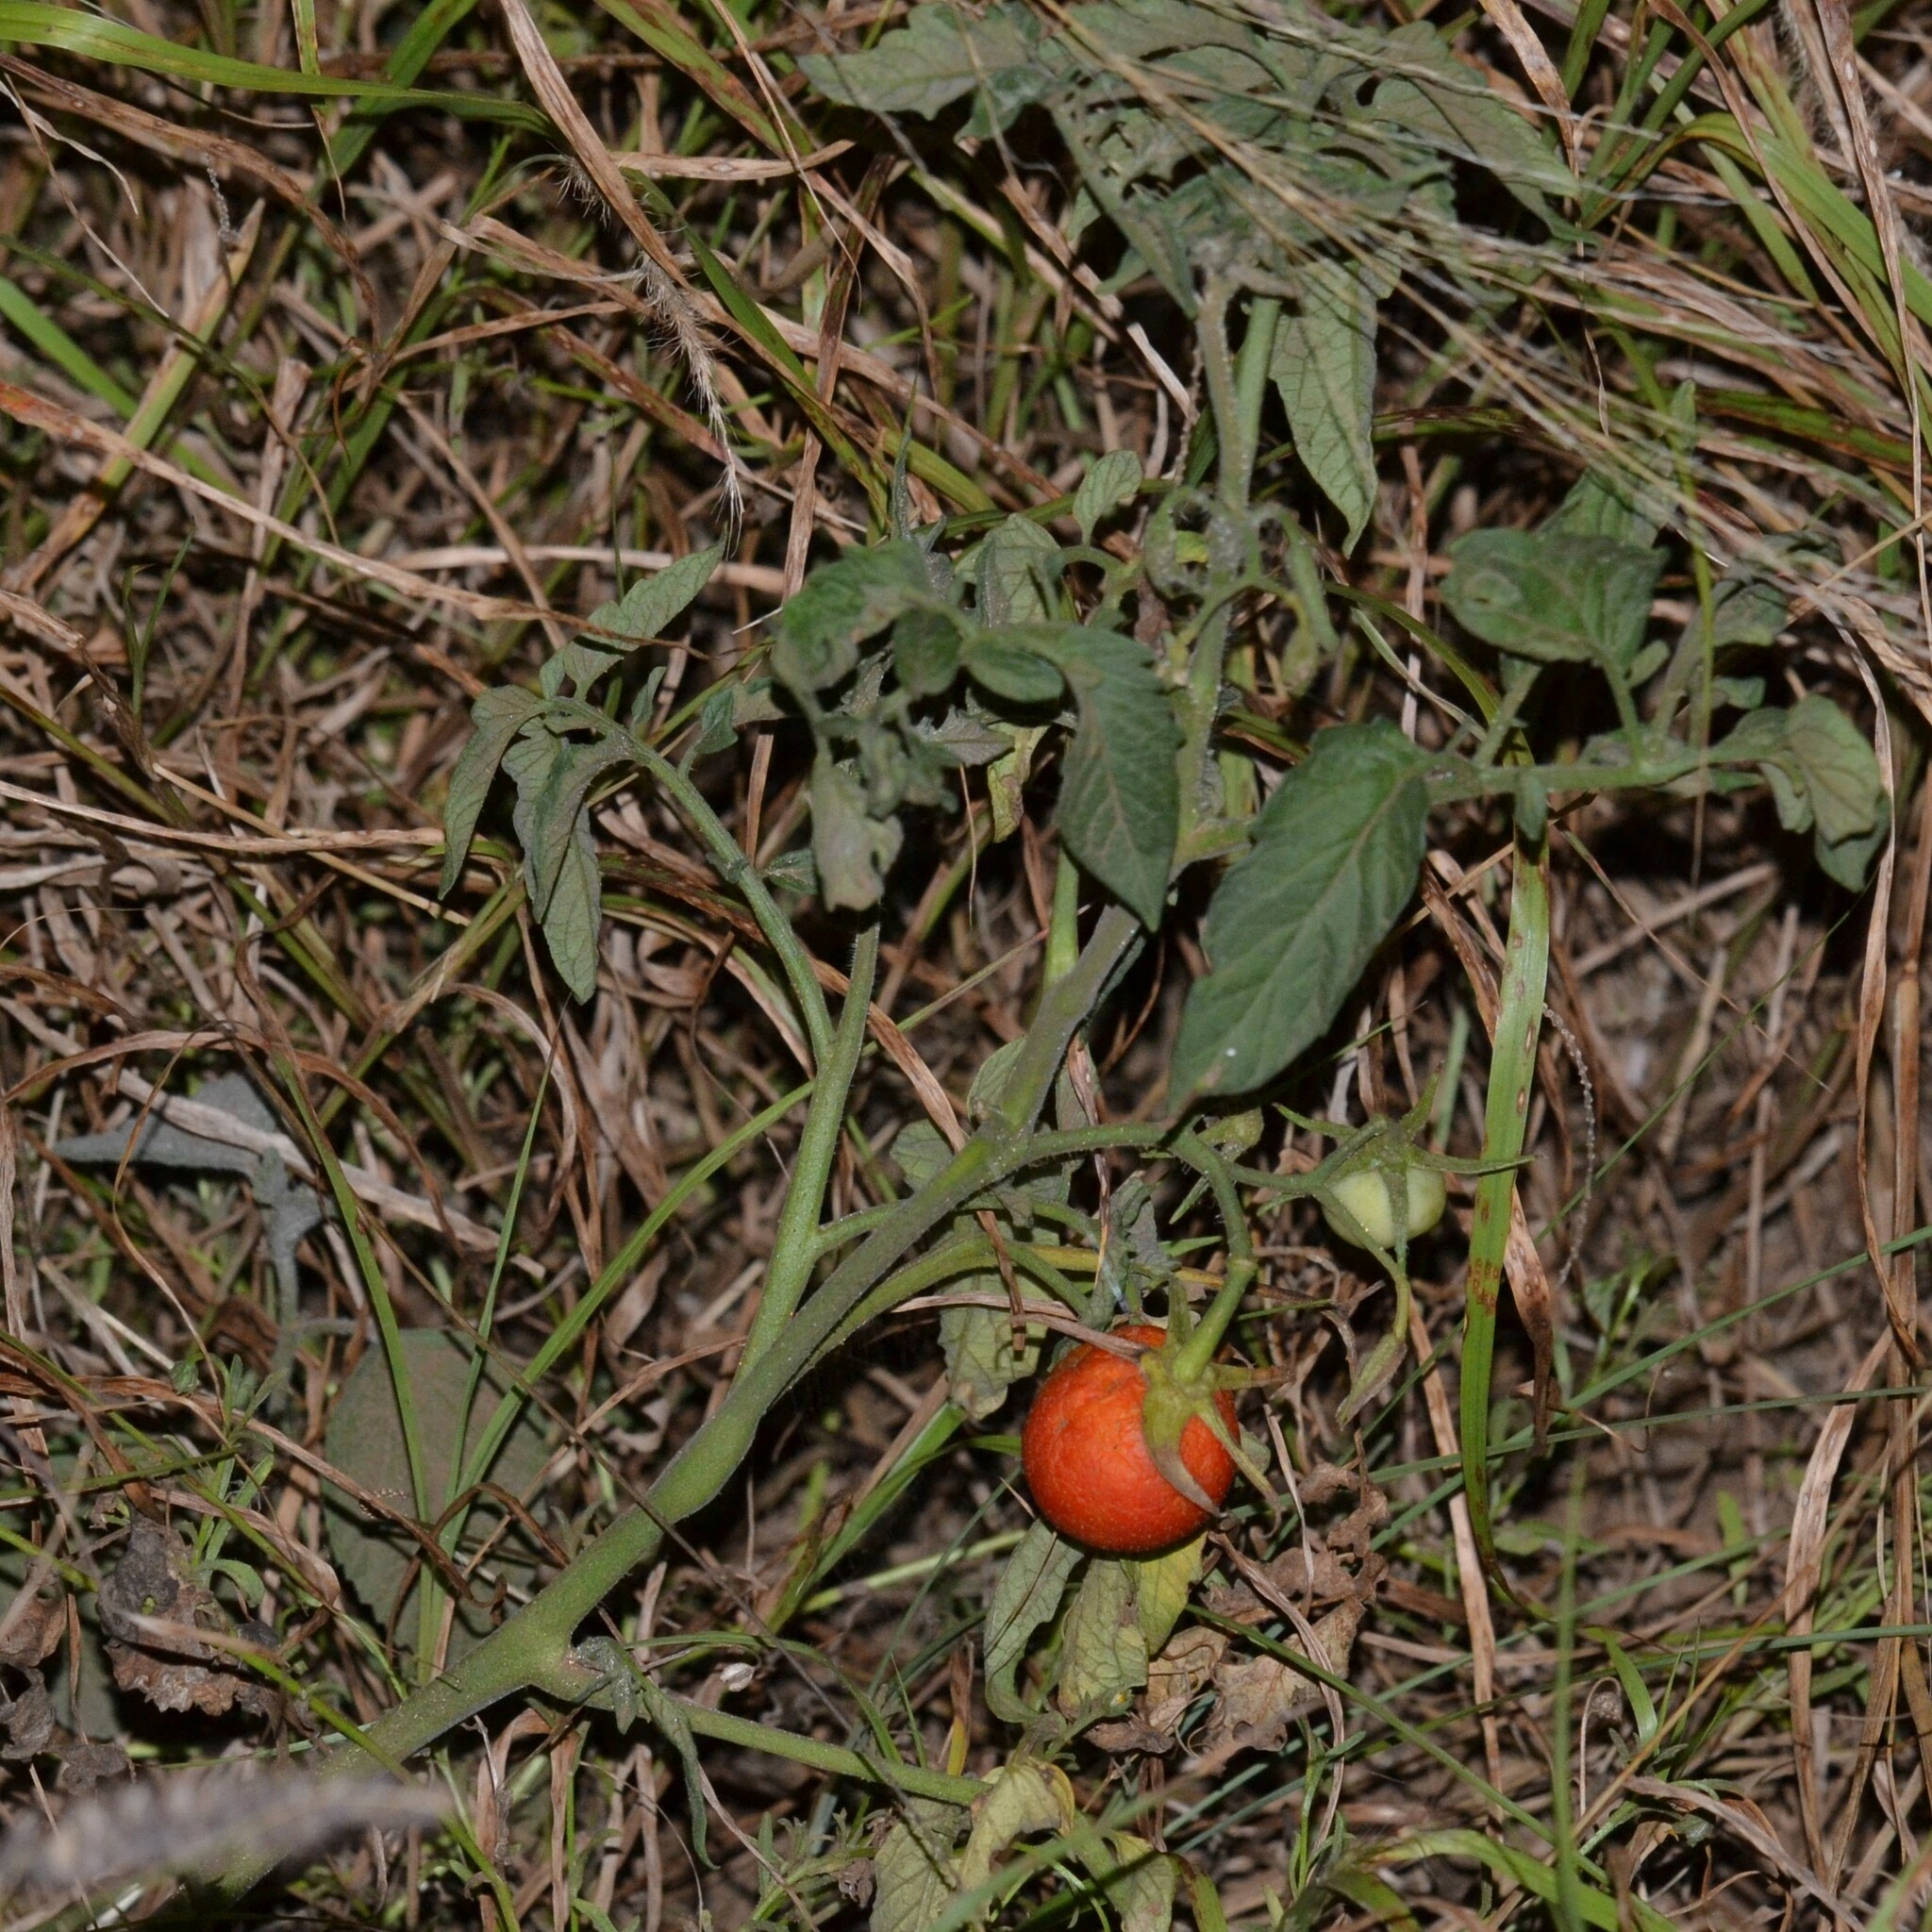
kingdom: Plantae
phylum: Tracheophyta
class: Magnoliopsida
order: Solanales
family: Solanaceae
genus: Solanum
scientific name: Solanum lycopersicum
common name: Garden tomato
